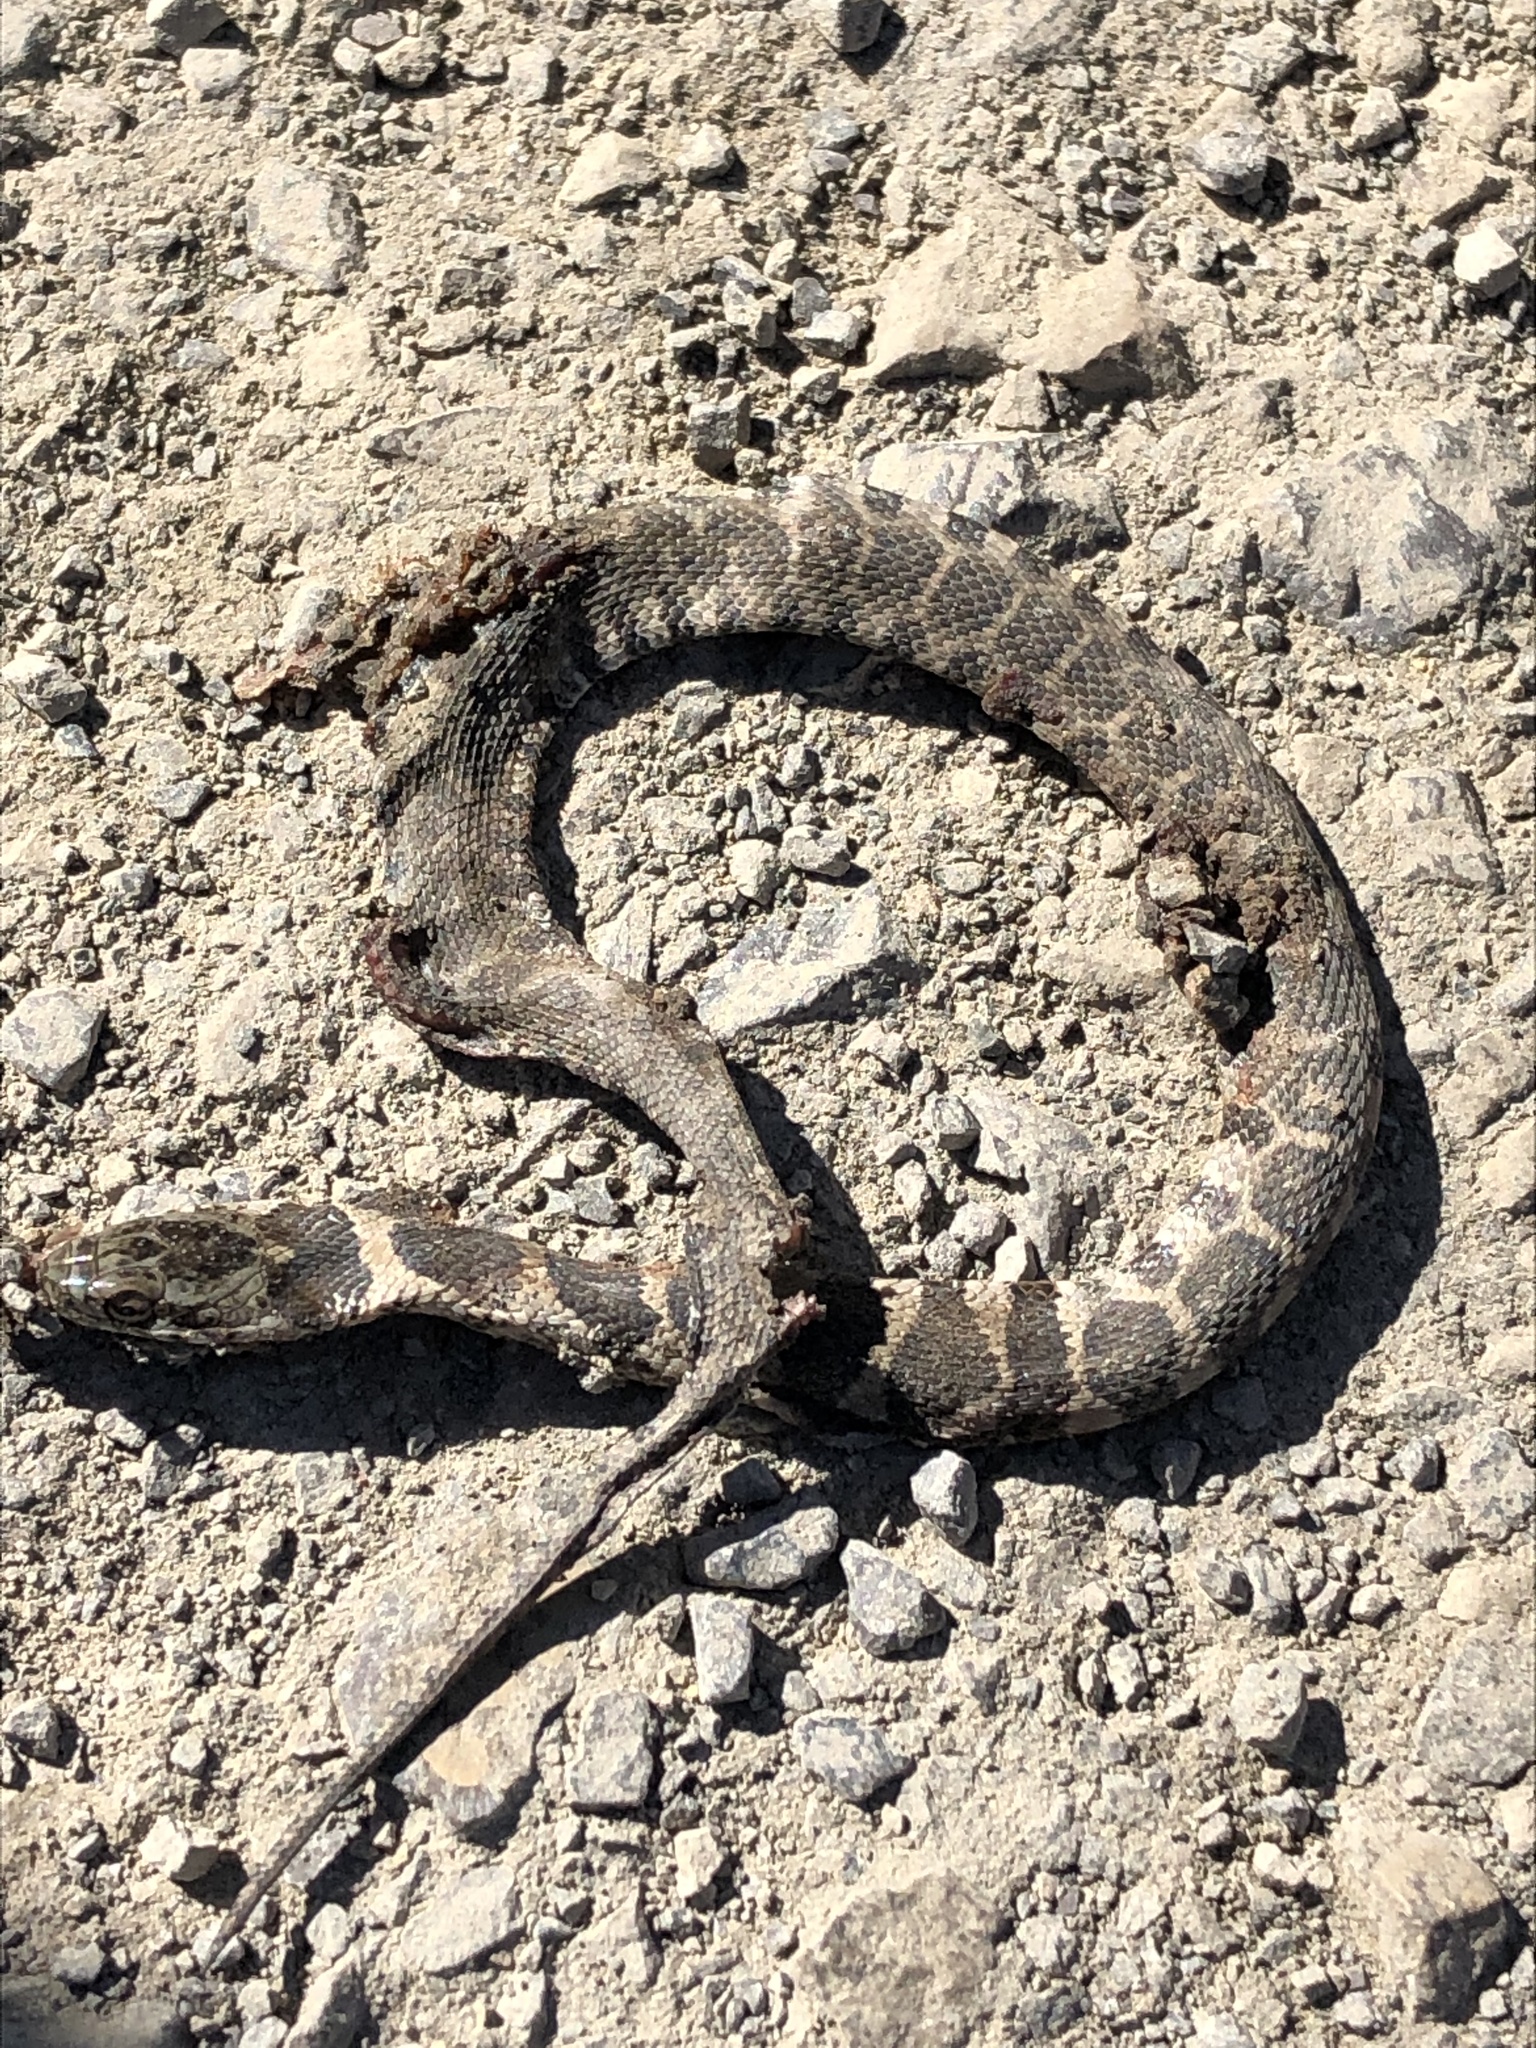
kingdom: Animalia
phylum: Chordata
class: Squamata
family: Colubridae
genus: Nerodia
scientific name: Nerodia sipedon
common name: Northern water snake
